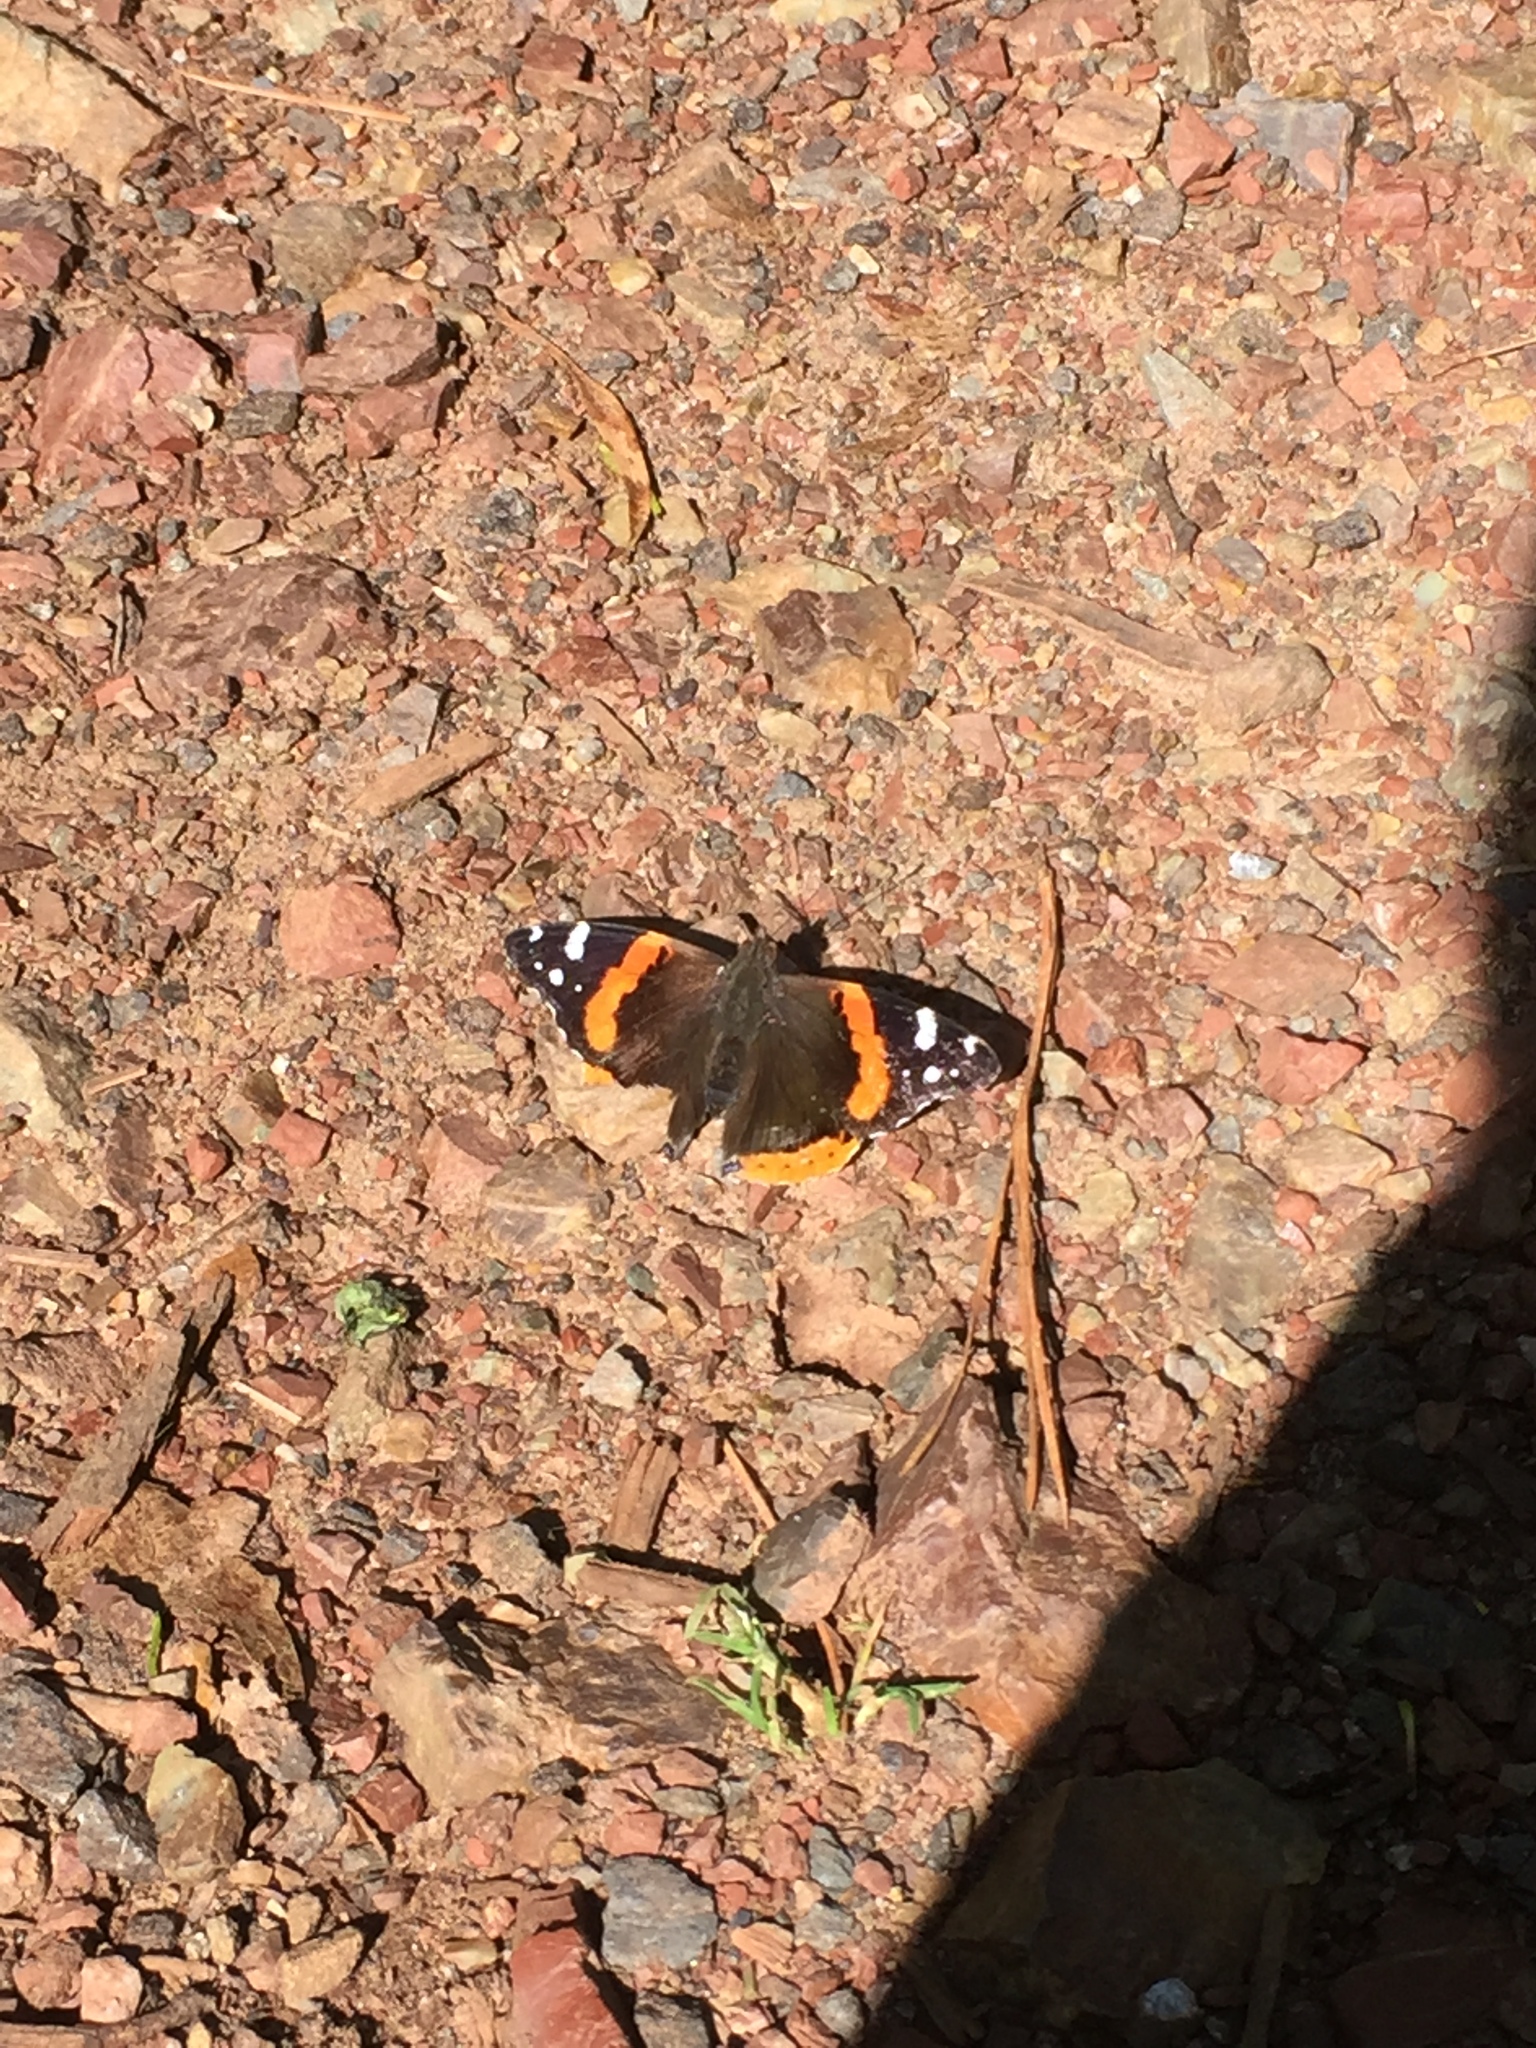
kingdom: Animalia
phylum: Arthropoda
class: Insecta
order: Lepidoptera
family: Nymphalidae
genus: Vanessa
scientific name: Vanessa atalanta
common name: Red admiral
